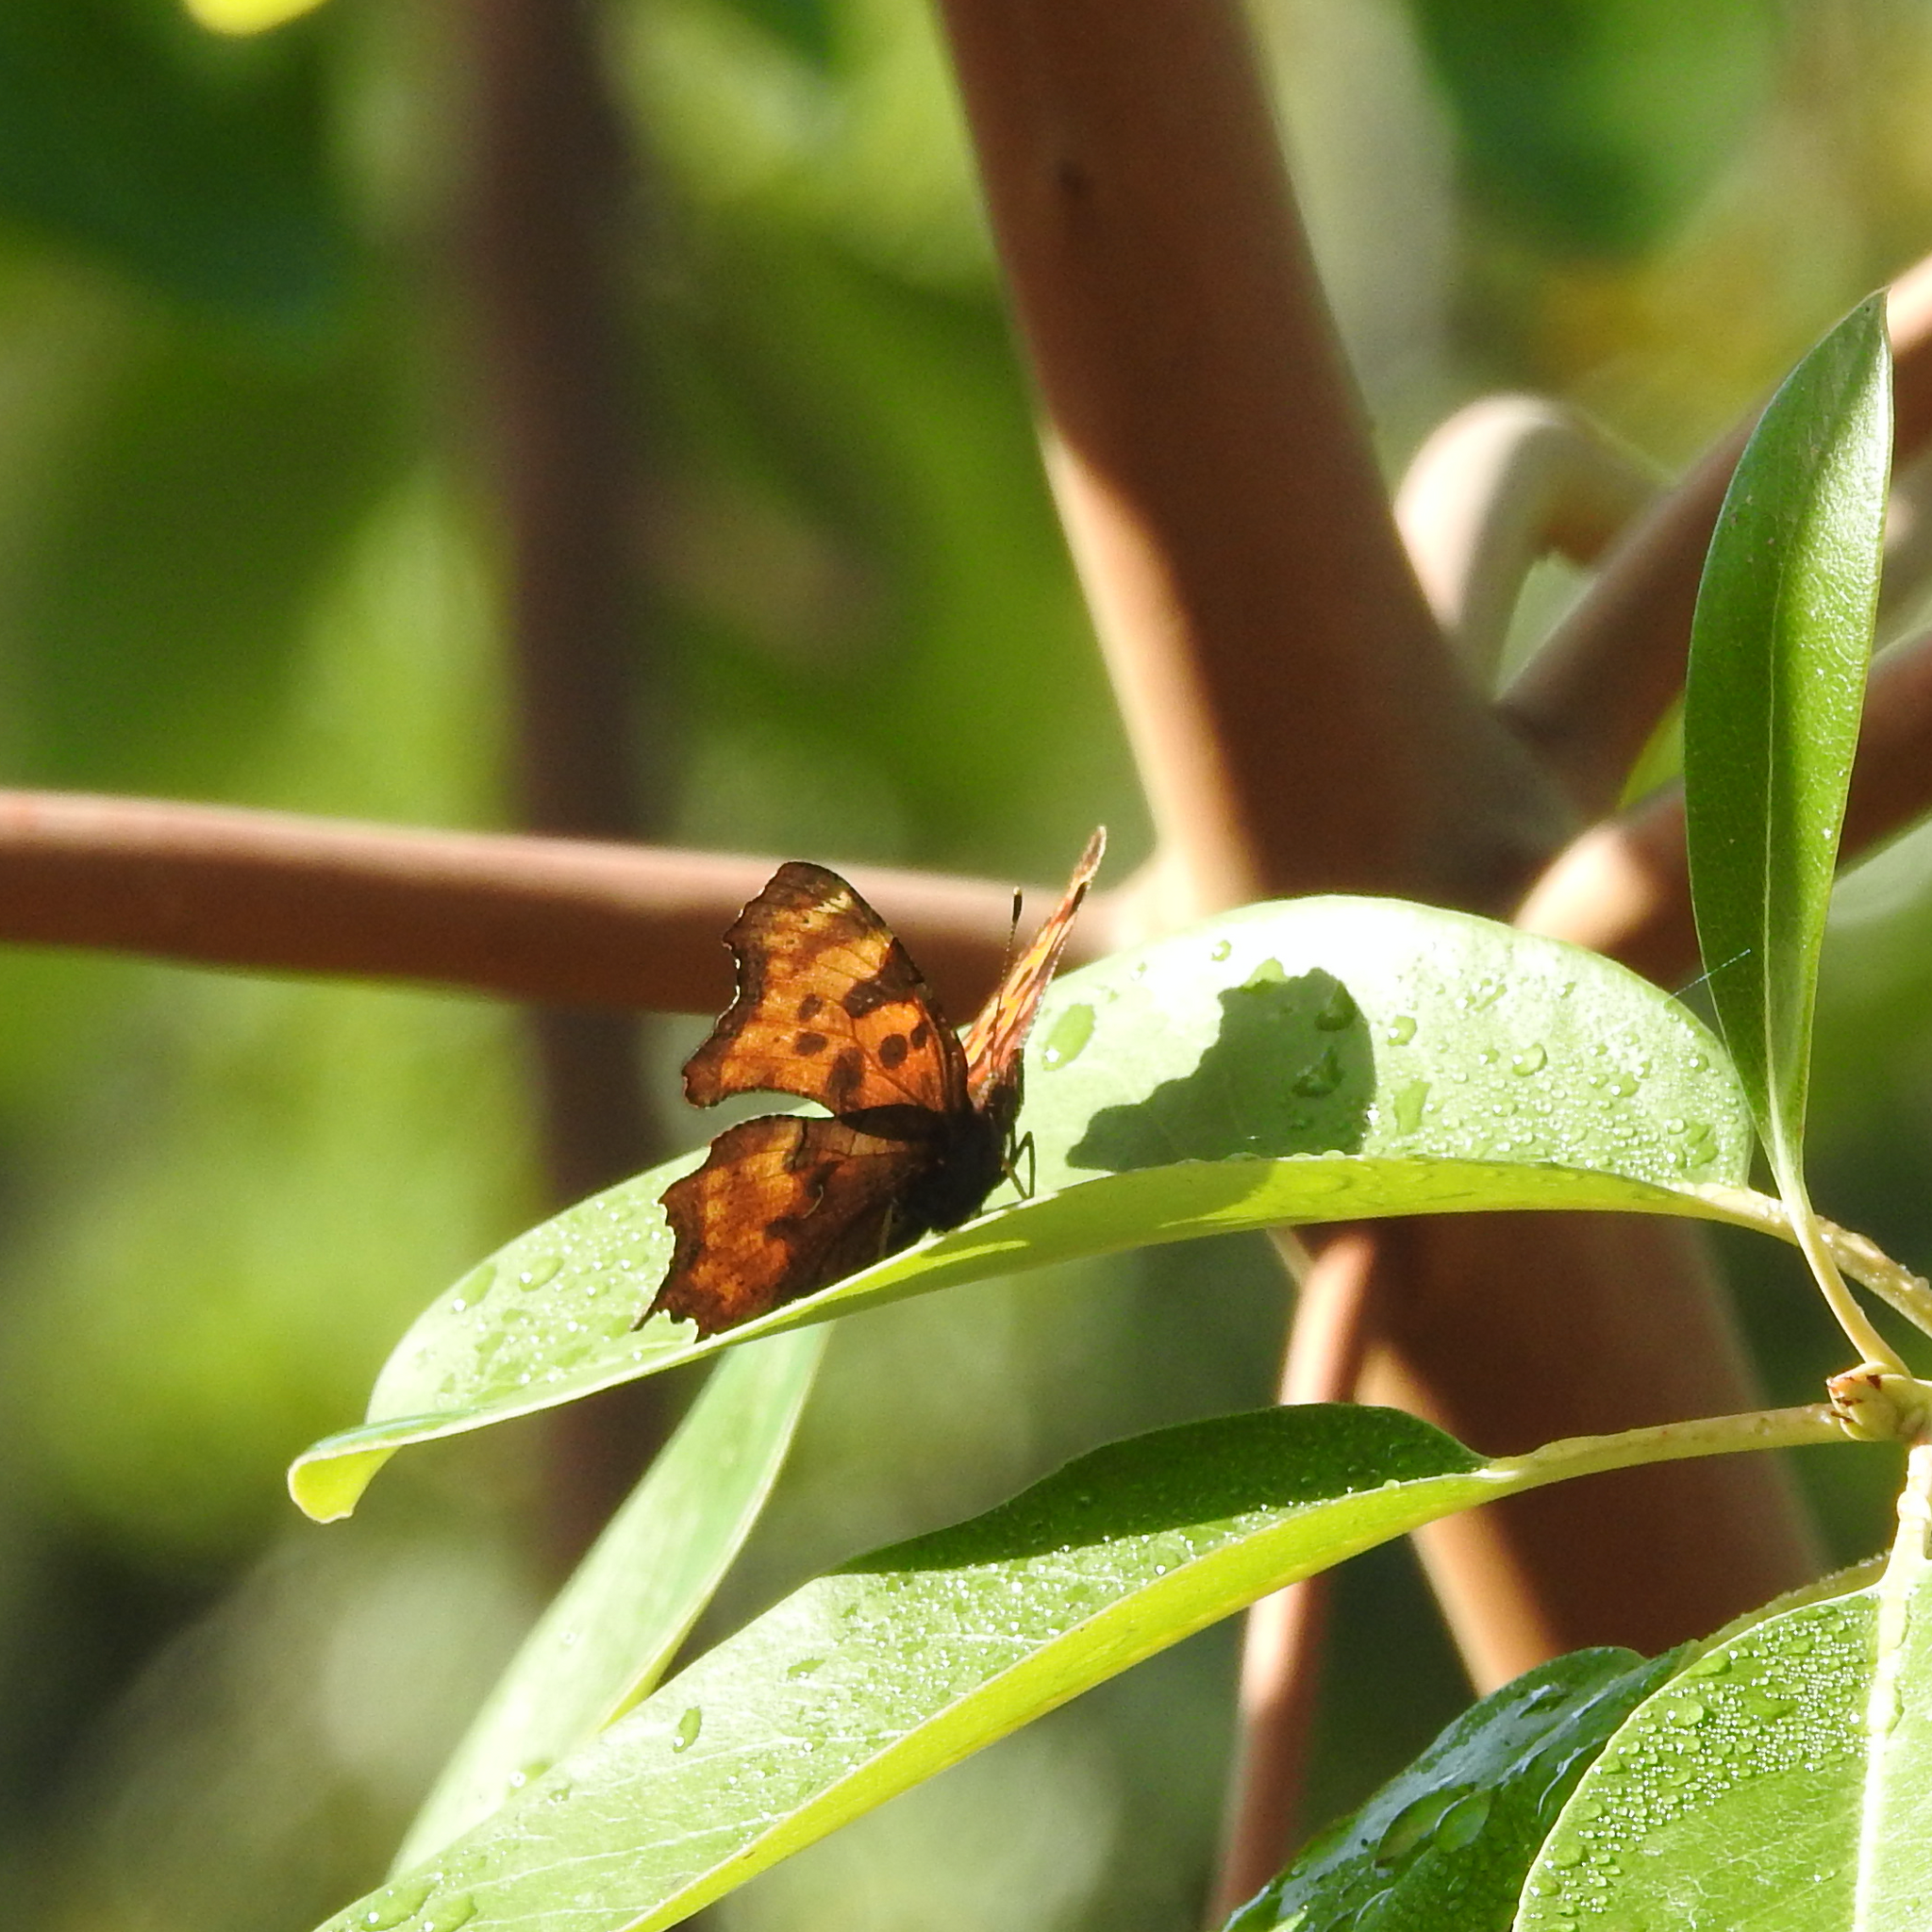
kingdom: Plantae
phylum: Tracheophyta
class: Magnoliopsida
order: Ericales
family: Ericaceae
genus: Arbutus
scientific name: Arbutus menziesii
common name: Pacific madrone
